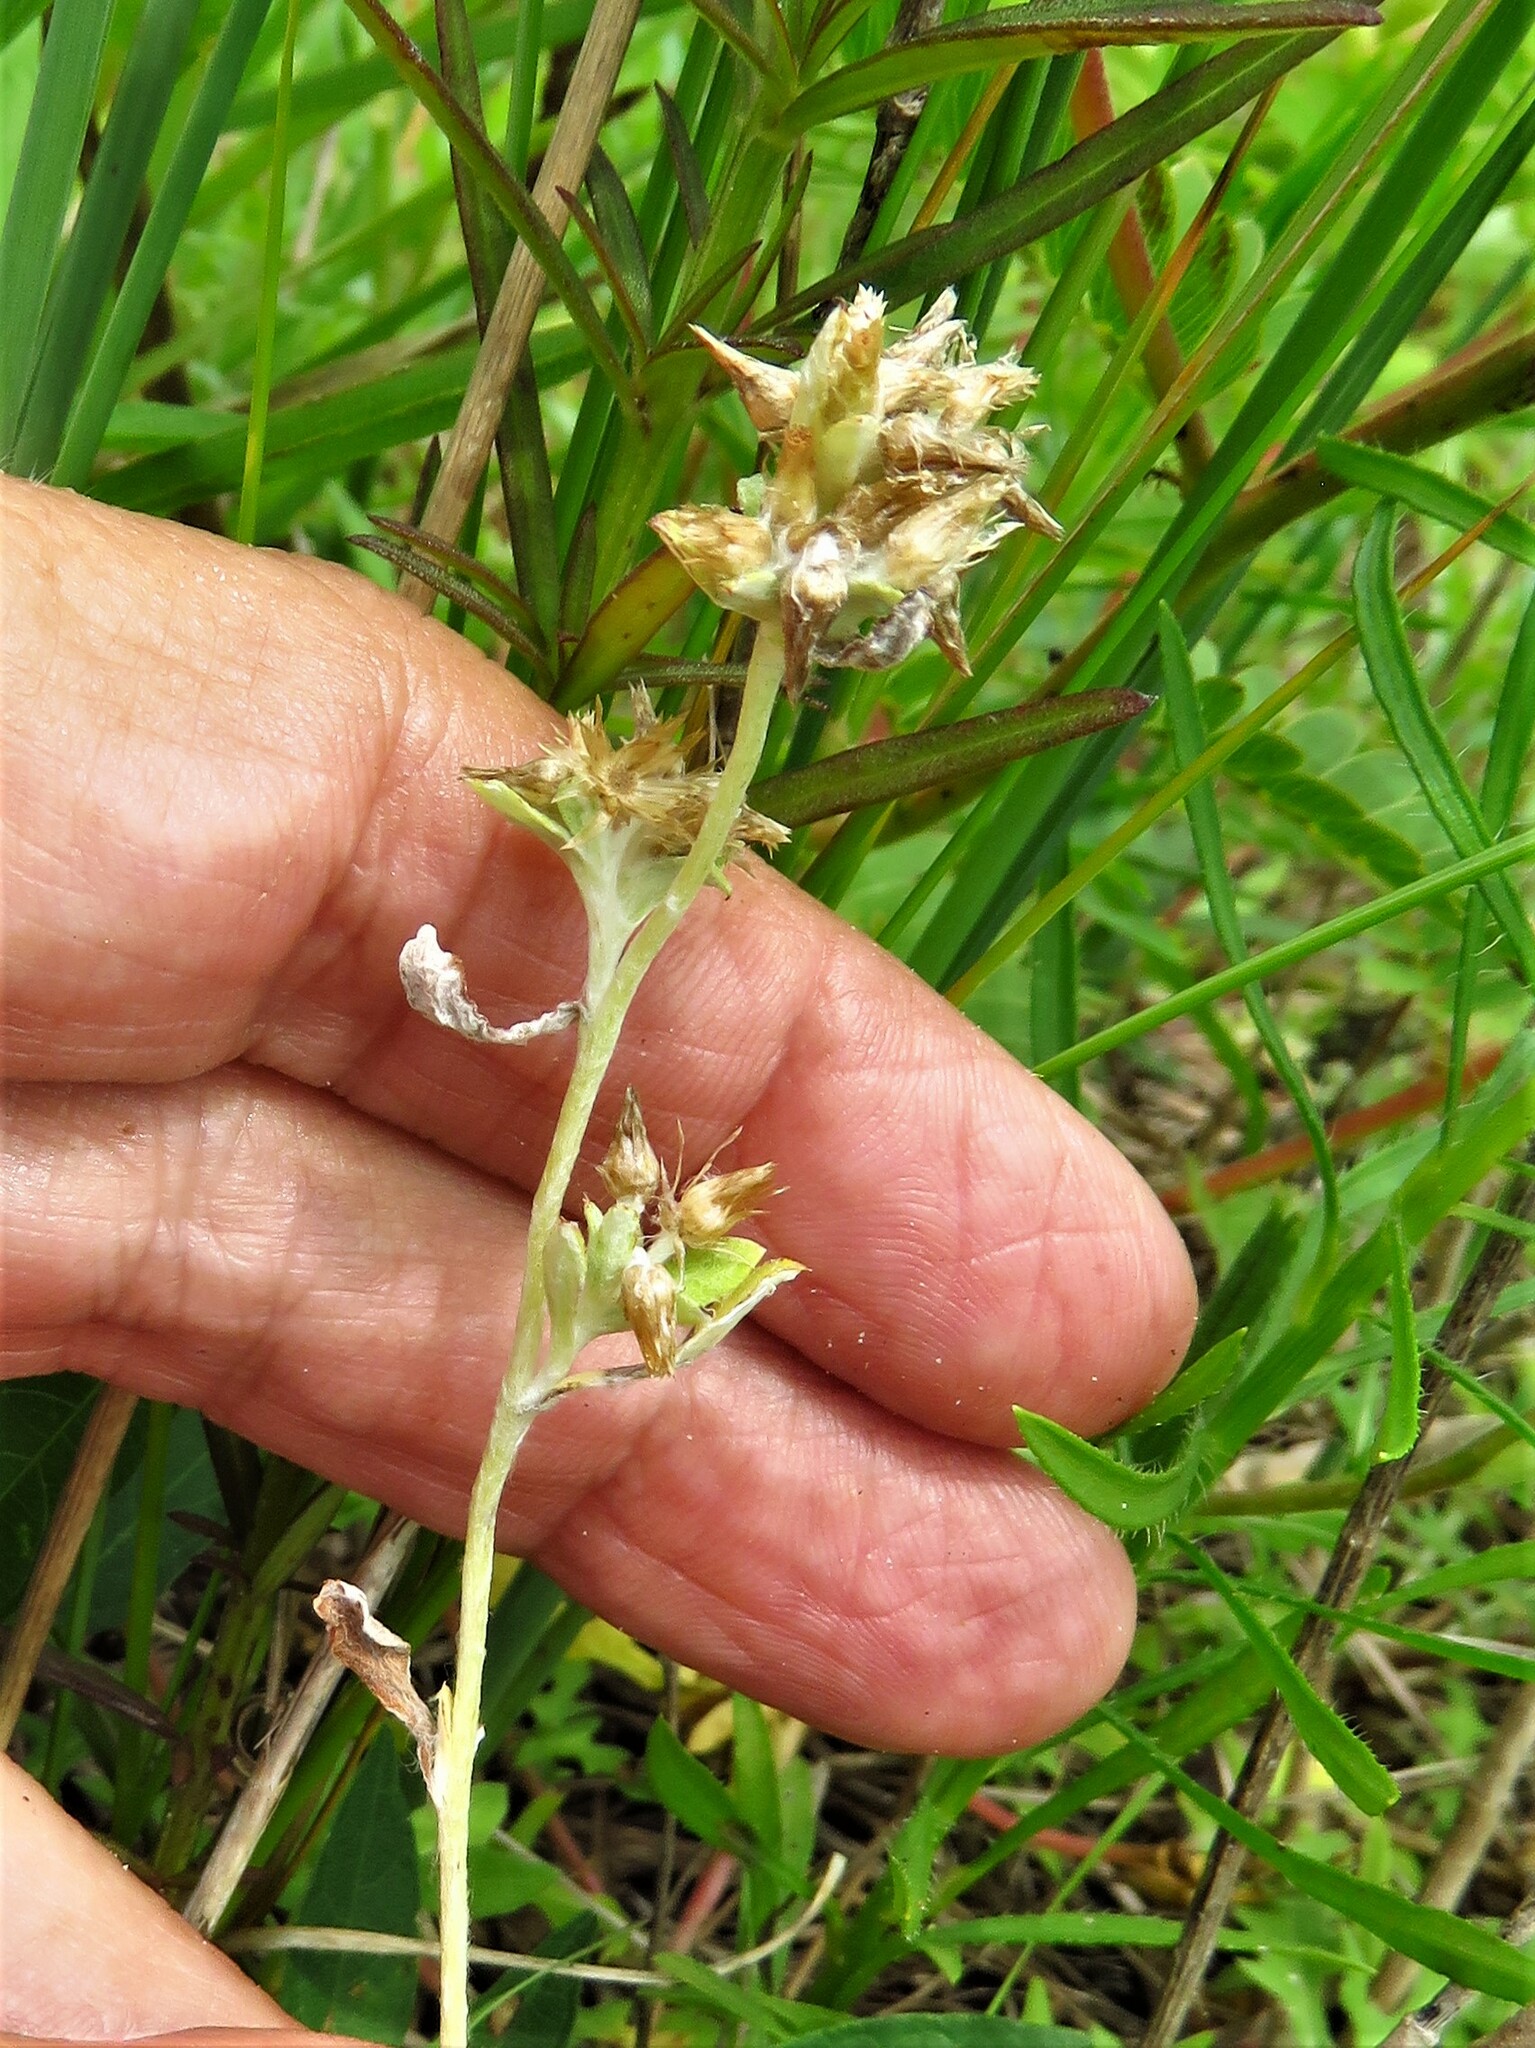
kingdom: Plantae
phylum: Tracheophyta
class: Magnoliopsida
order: Asterales
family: Asteraceae
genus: Gamochaeta
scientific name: Gamochaeta pensylvanica
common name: Pennsylvania everlasting
